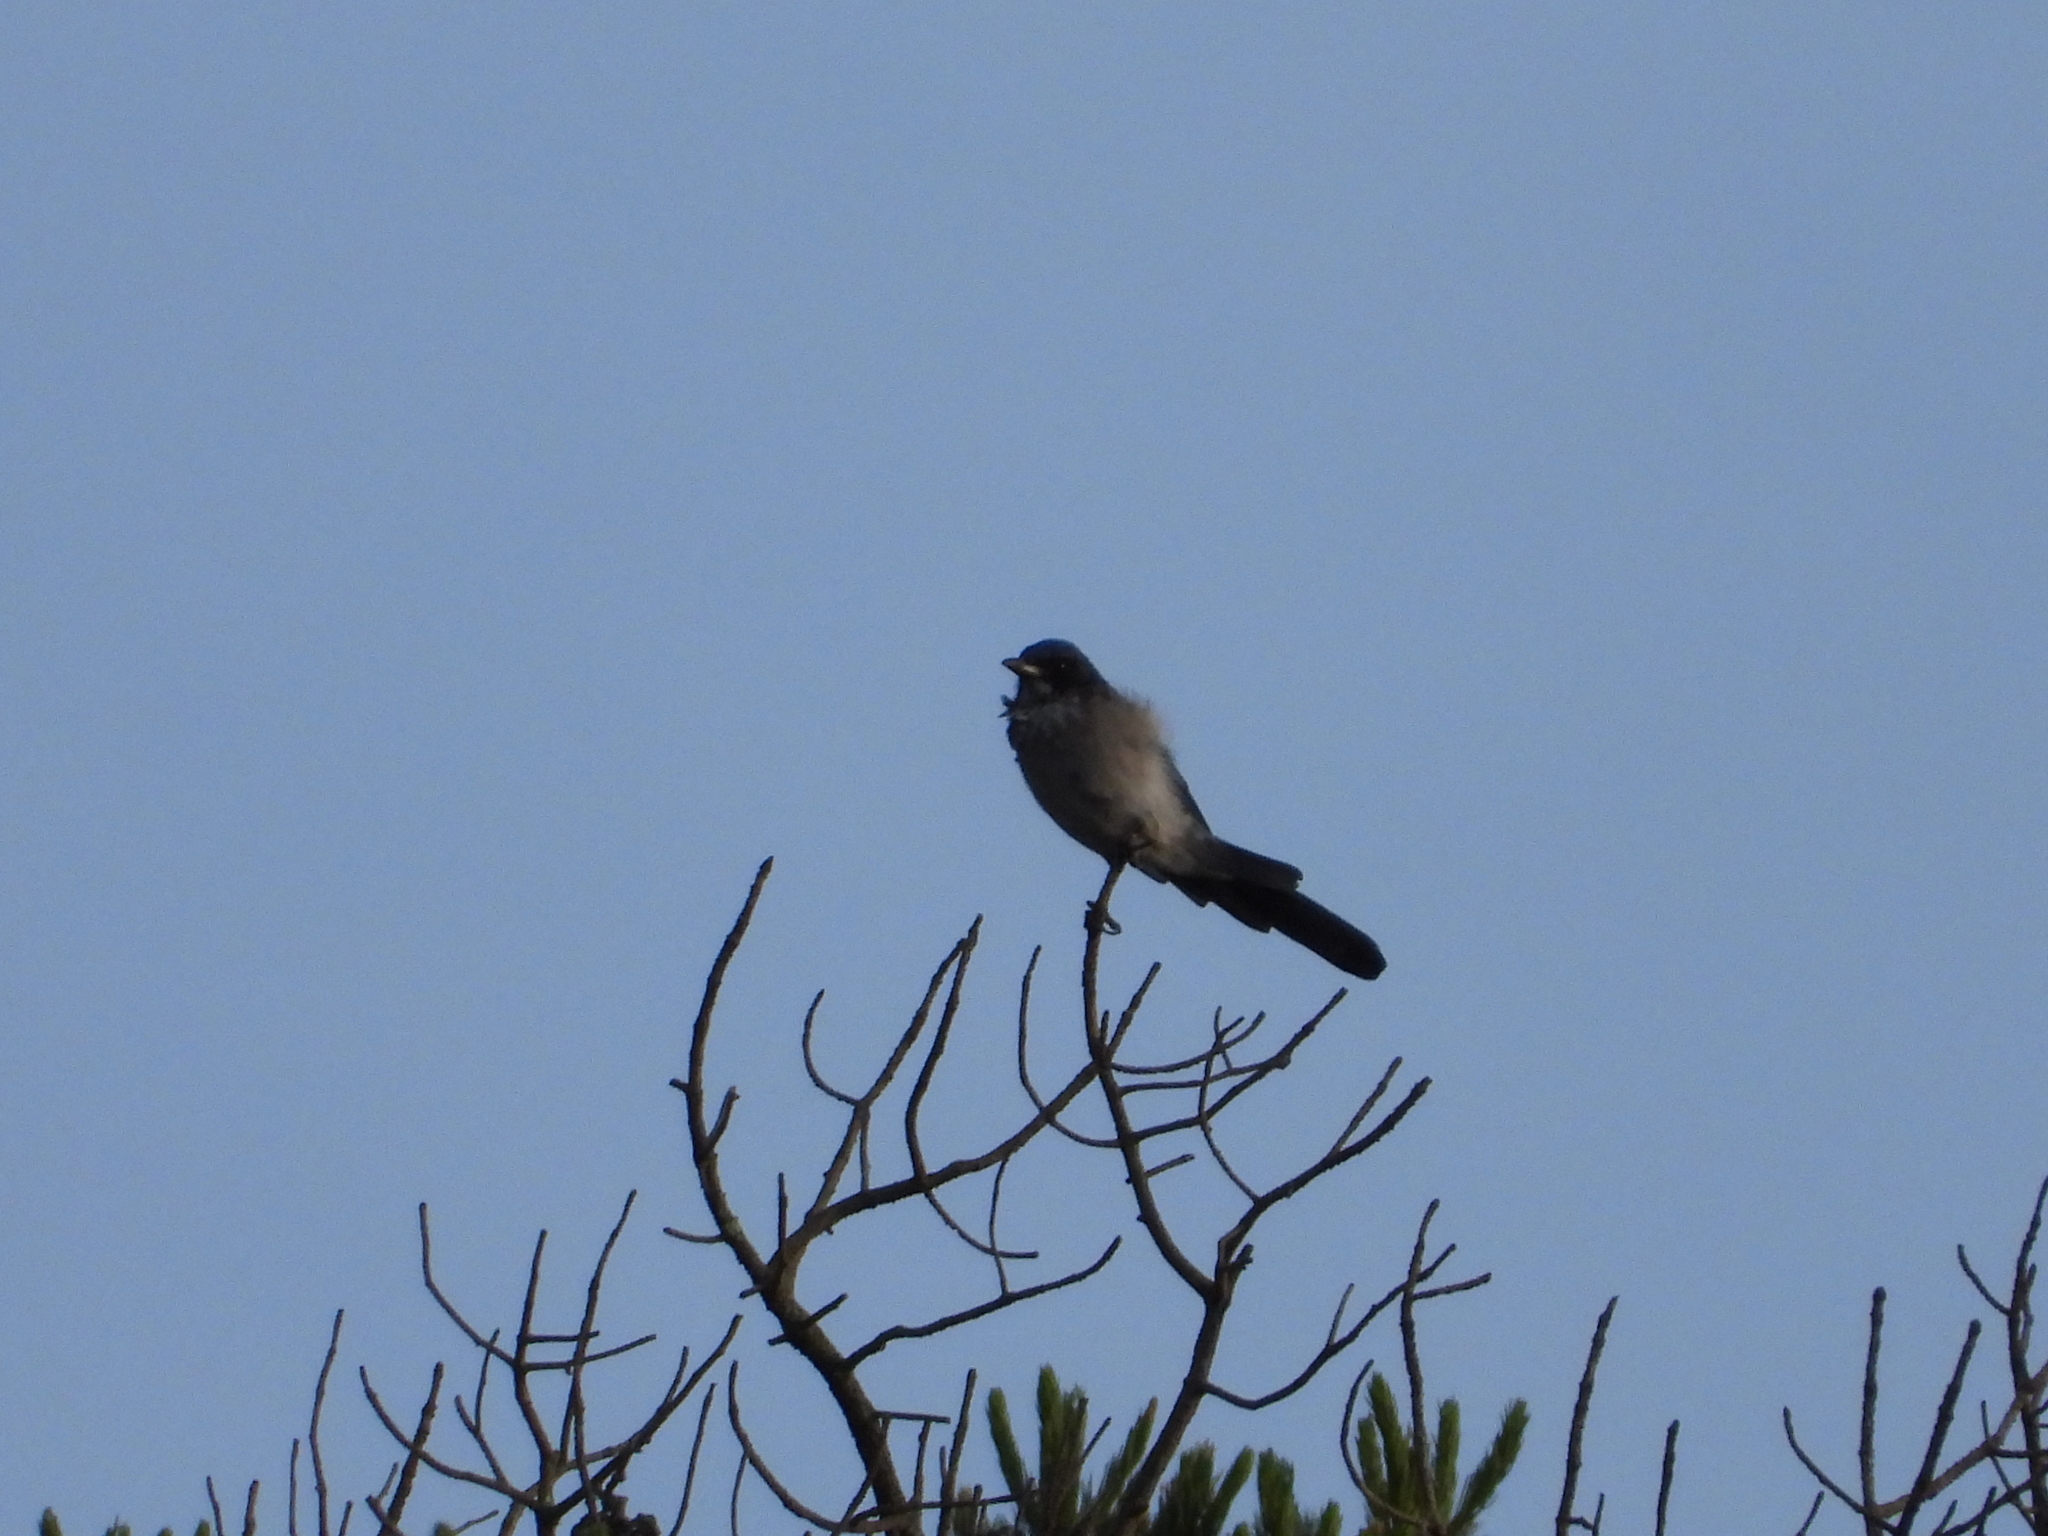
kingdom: Animalia
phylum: Chordata
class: Aves
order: Passeriformes
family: Corvidae
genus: Aphelocoma
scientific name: Aphelocoma woodhouseii
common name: Woodhouse's scrub-jay
